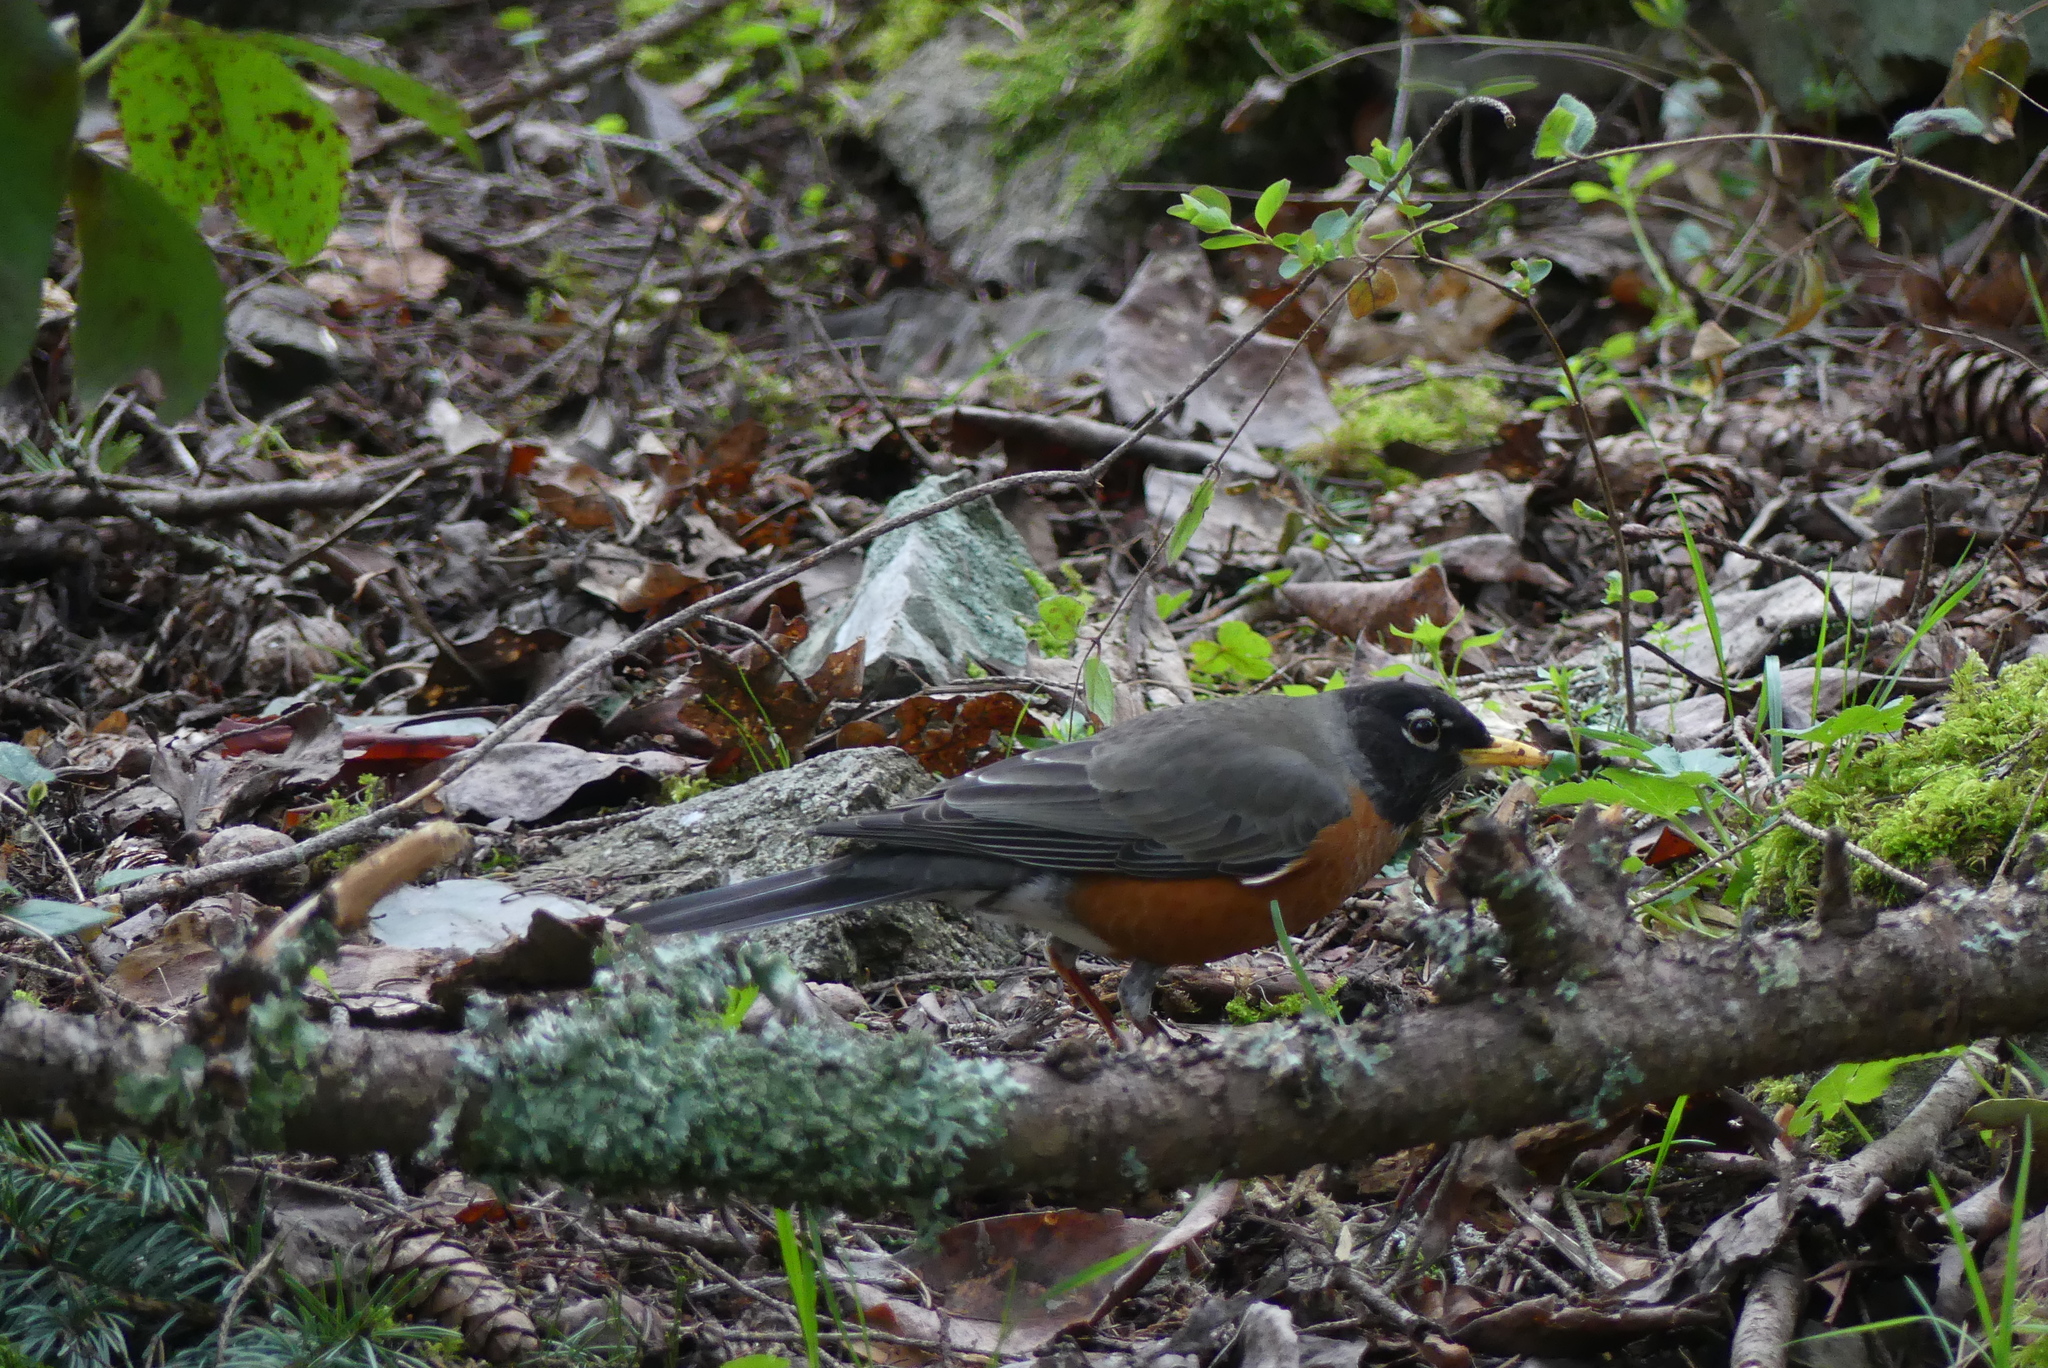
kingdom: Animalia
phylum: Chordata
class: Aves
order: Passeriformes
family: Turdidae
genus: Turdus
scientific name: Turdus migratorius
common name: American robin
